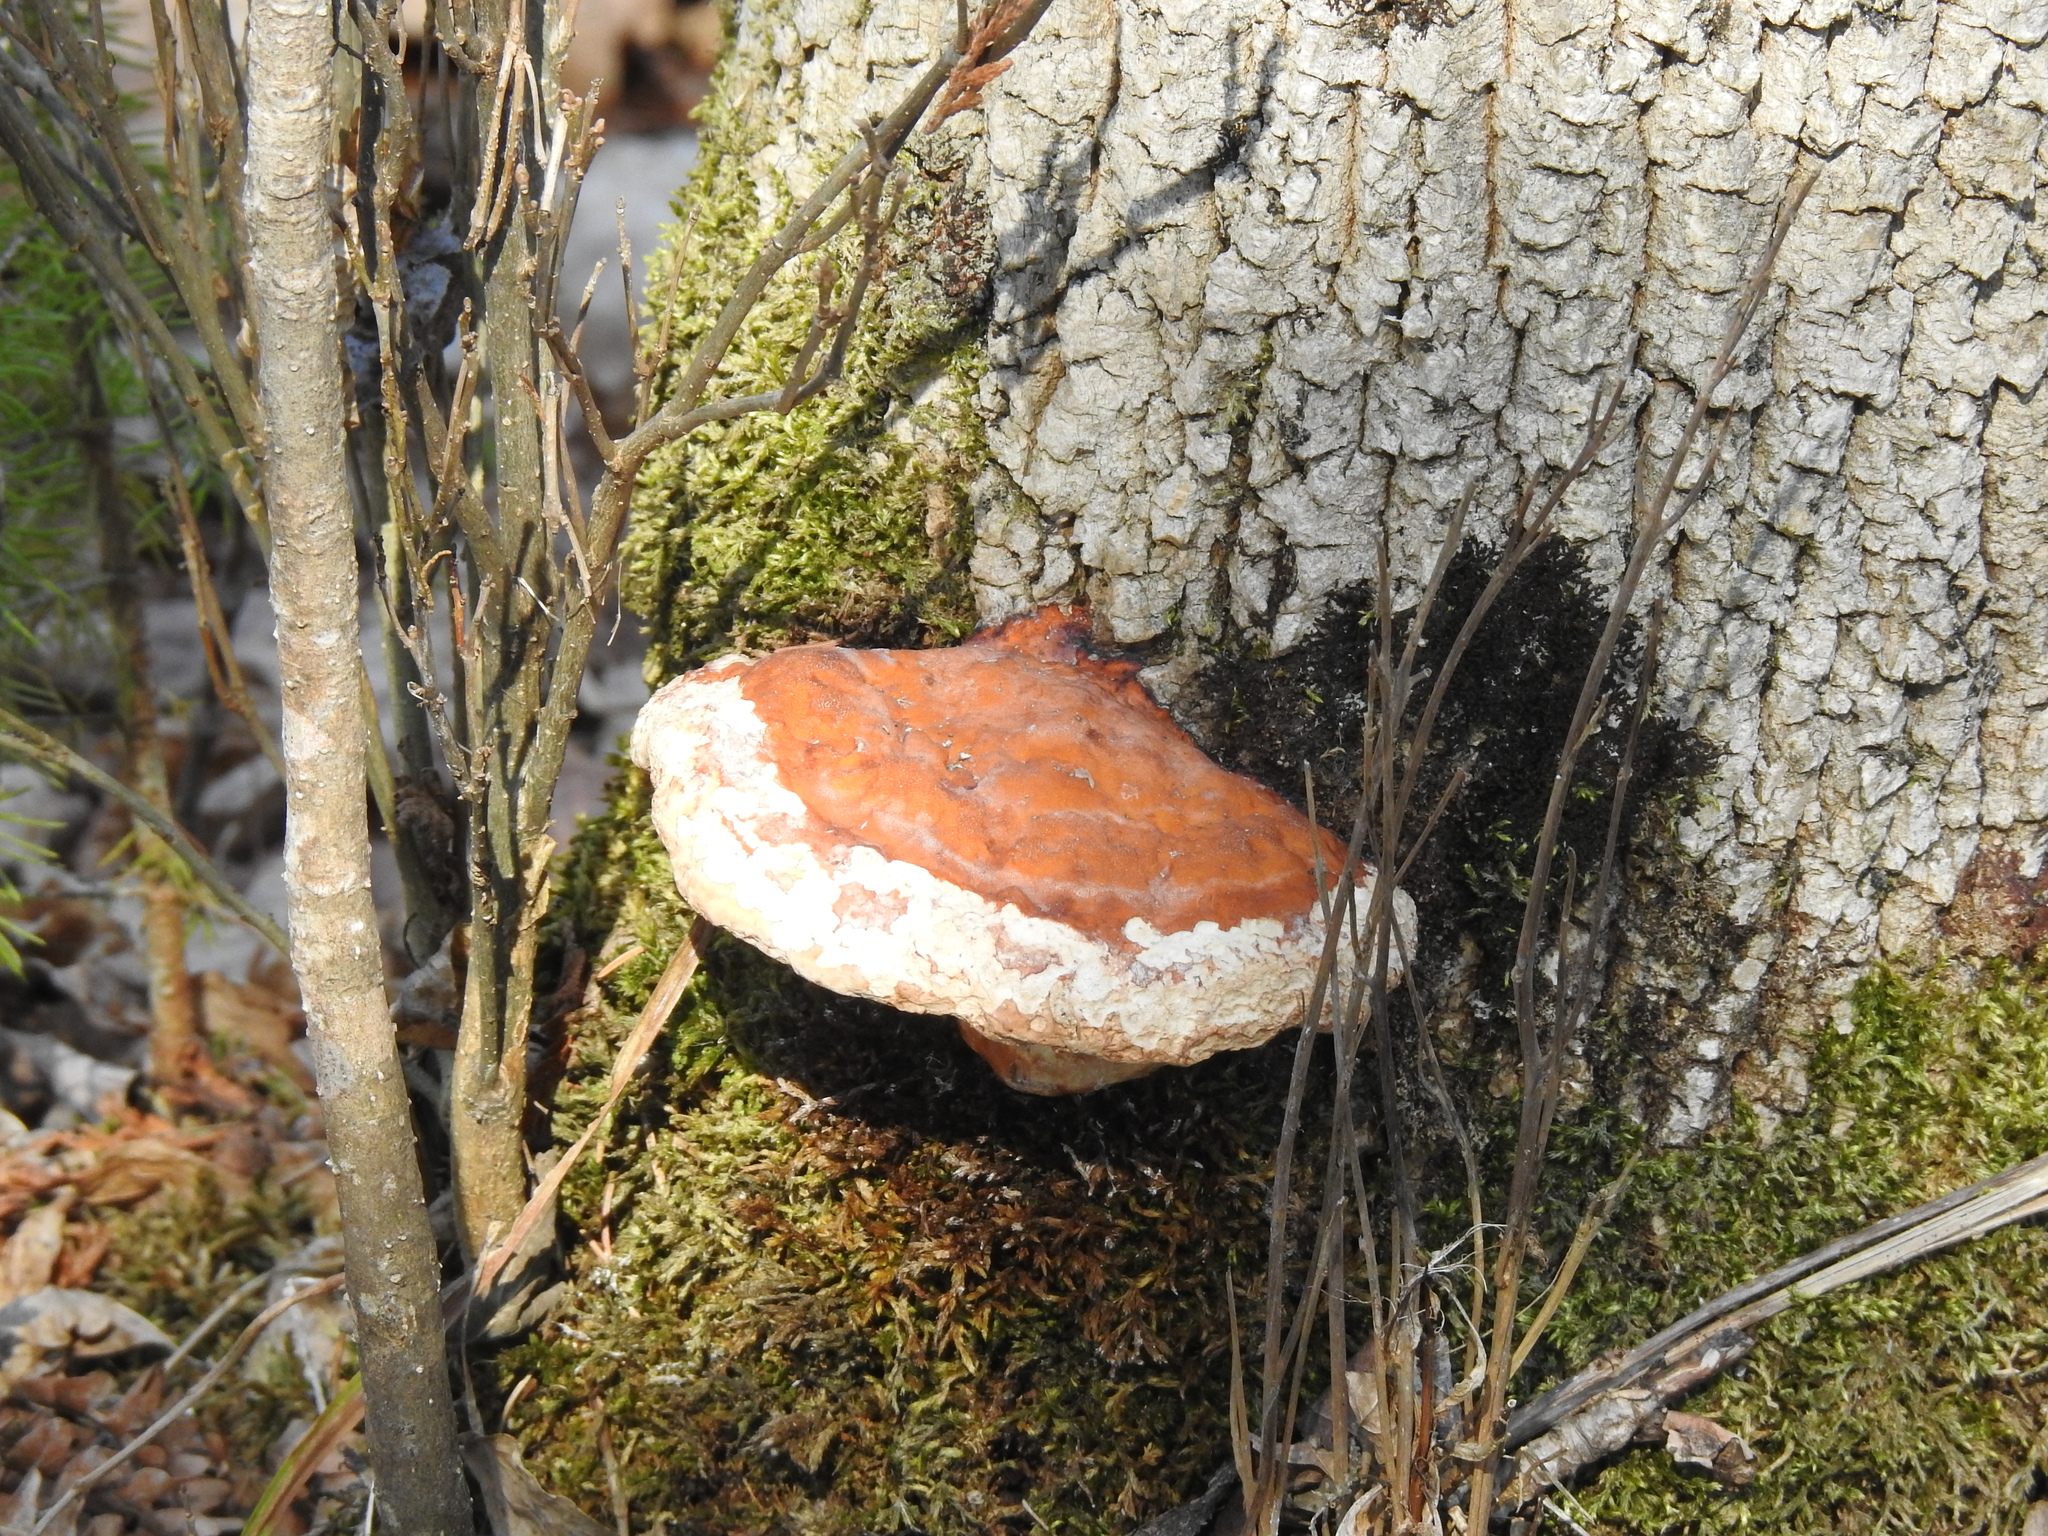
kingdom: Fungi
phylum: Basidiomycota
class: Agaricomycetes
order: Polyporales
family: Fomitopsidaceae
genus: Fomitopsis
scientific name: Fomitopsis mounceae
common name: Northern red belt
